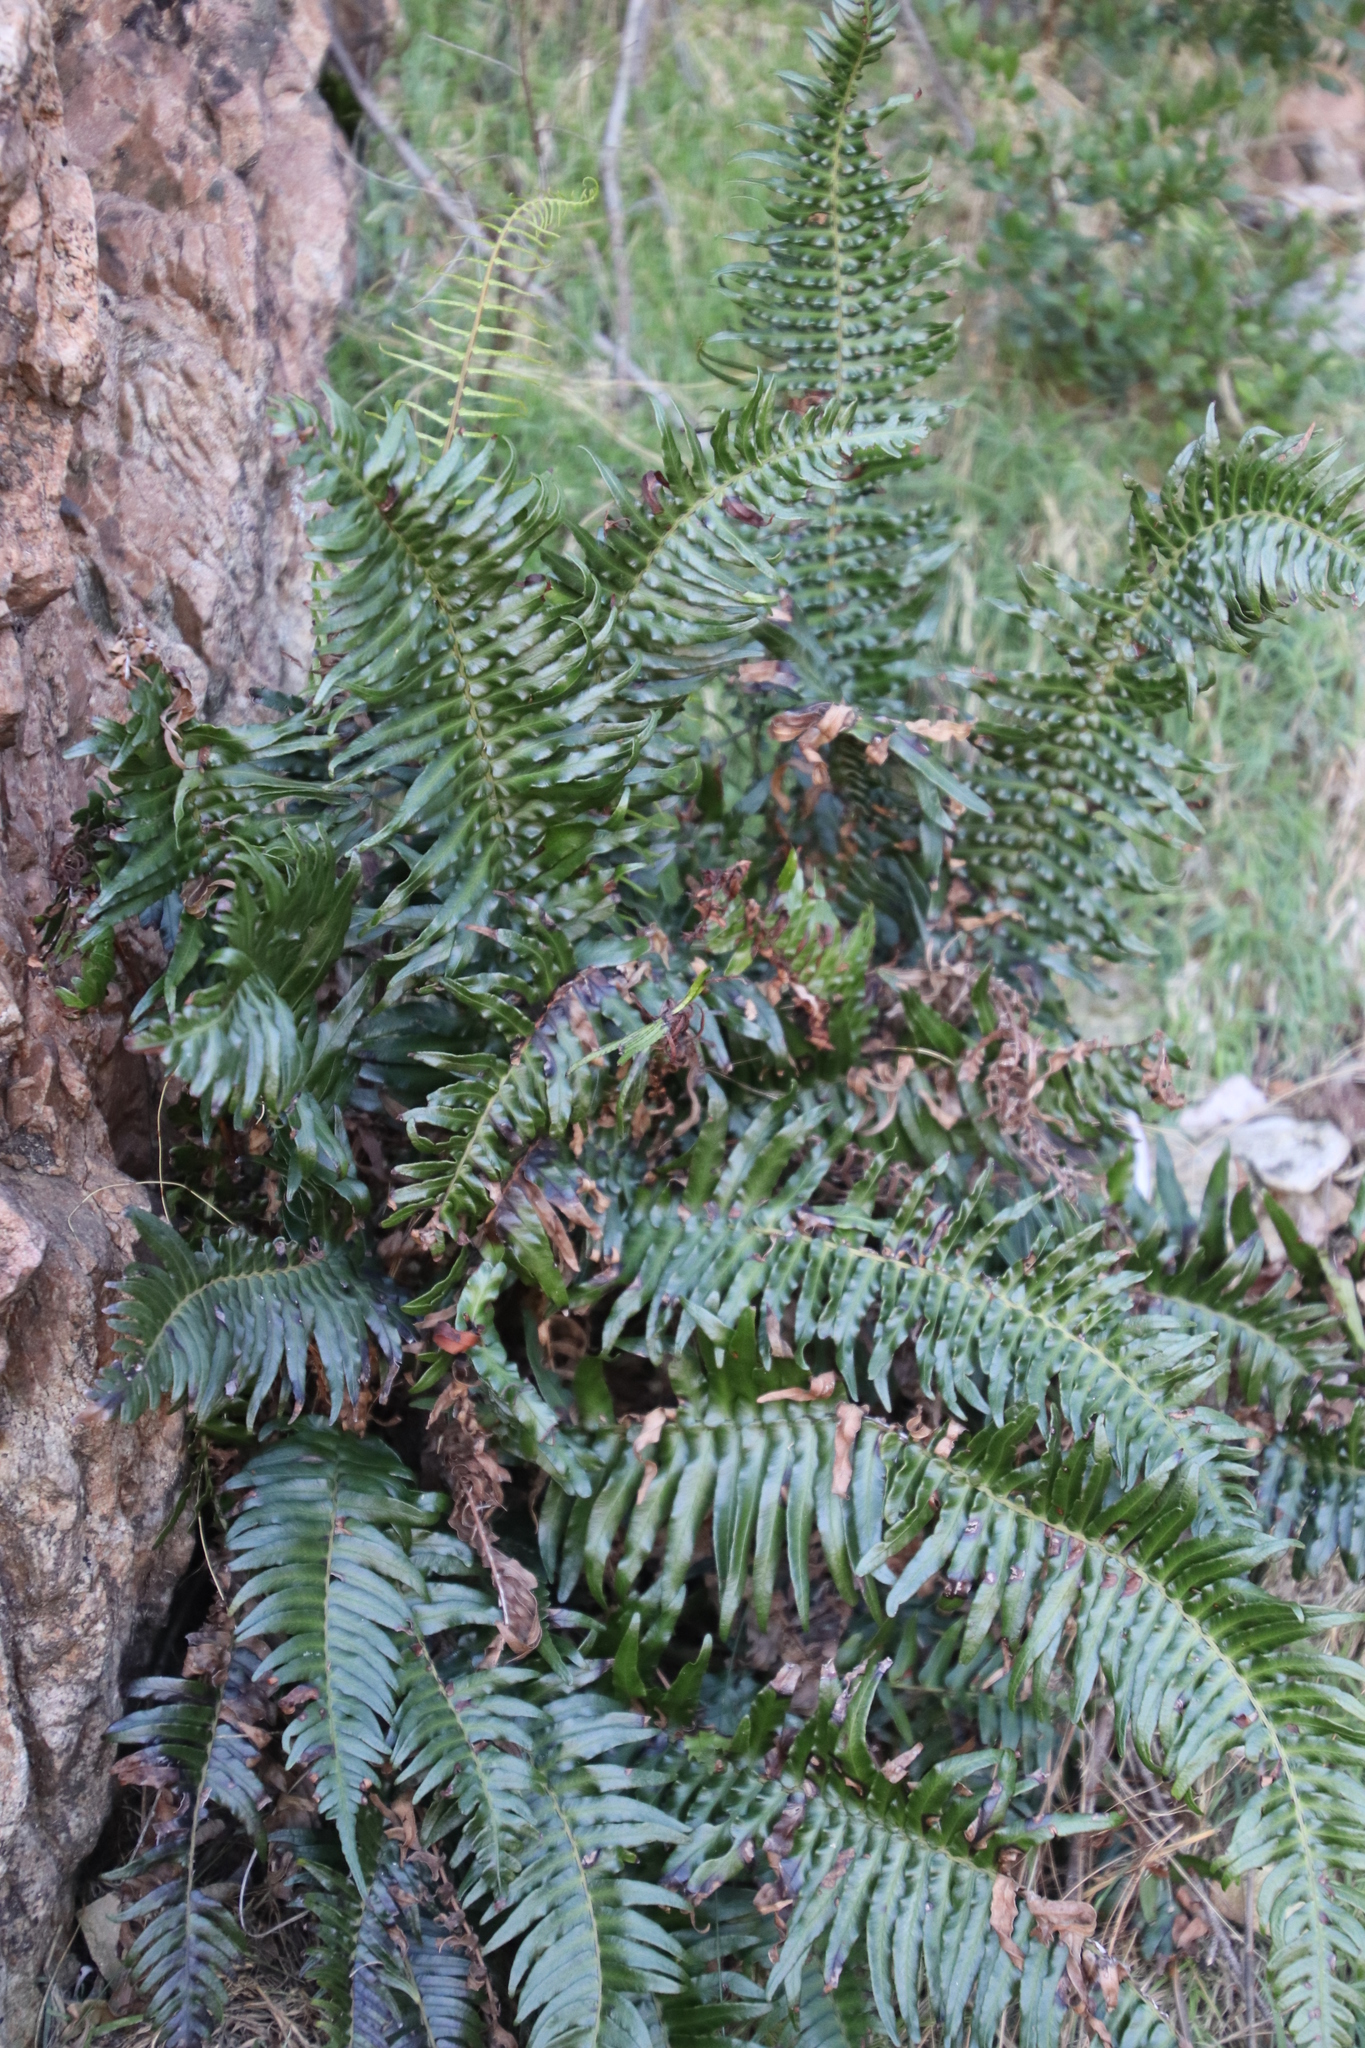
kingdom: Plantae
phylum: Tracheophyta
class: Polypodiopsida
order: Polypodiales
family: Blechnaceae
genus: Blechnum
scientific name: Blechnum punctulatum
